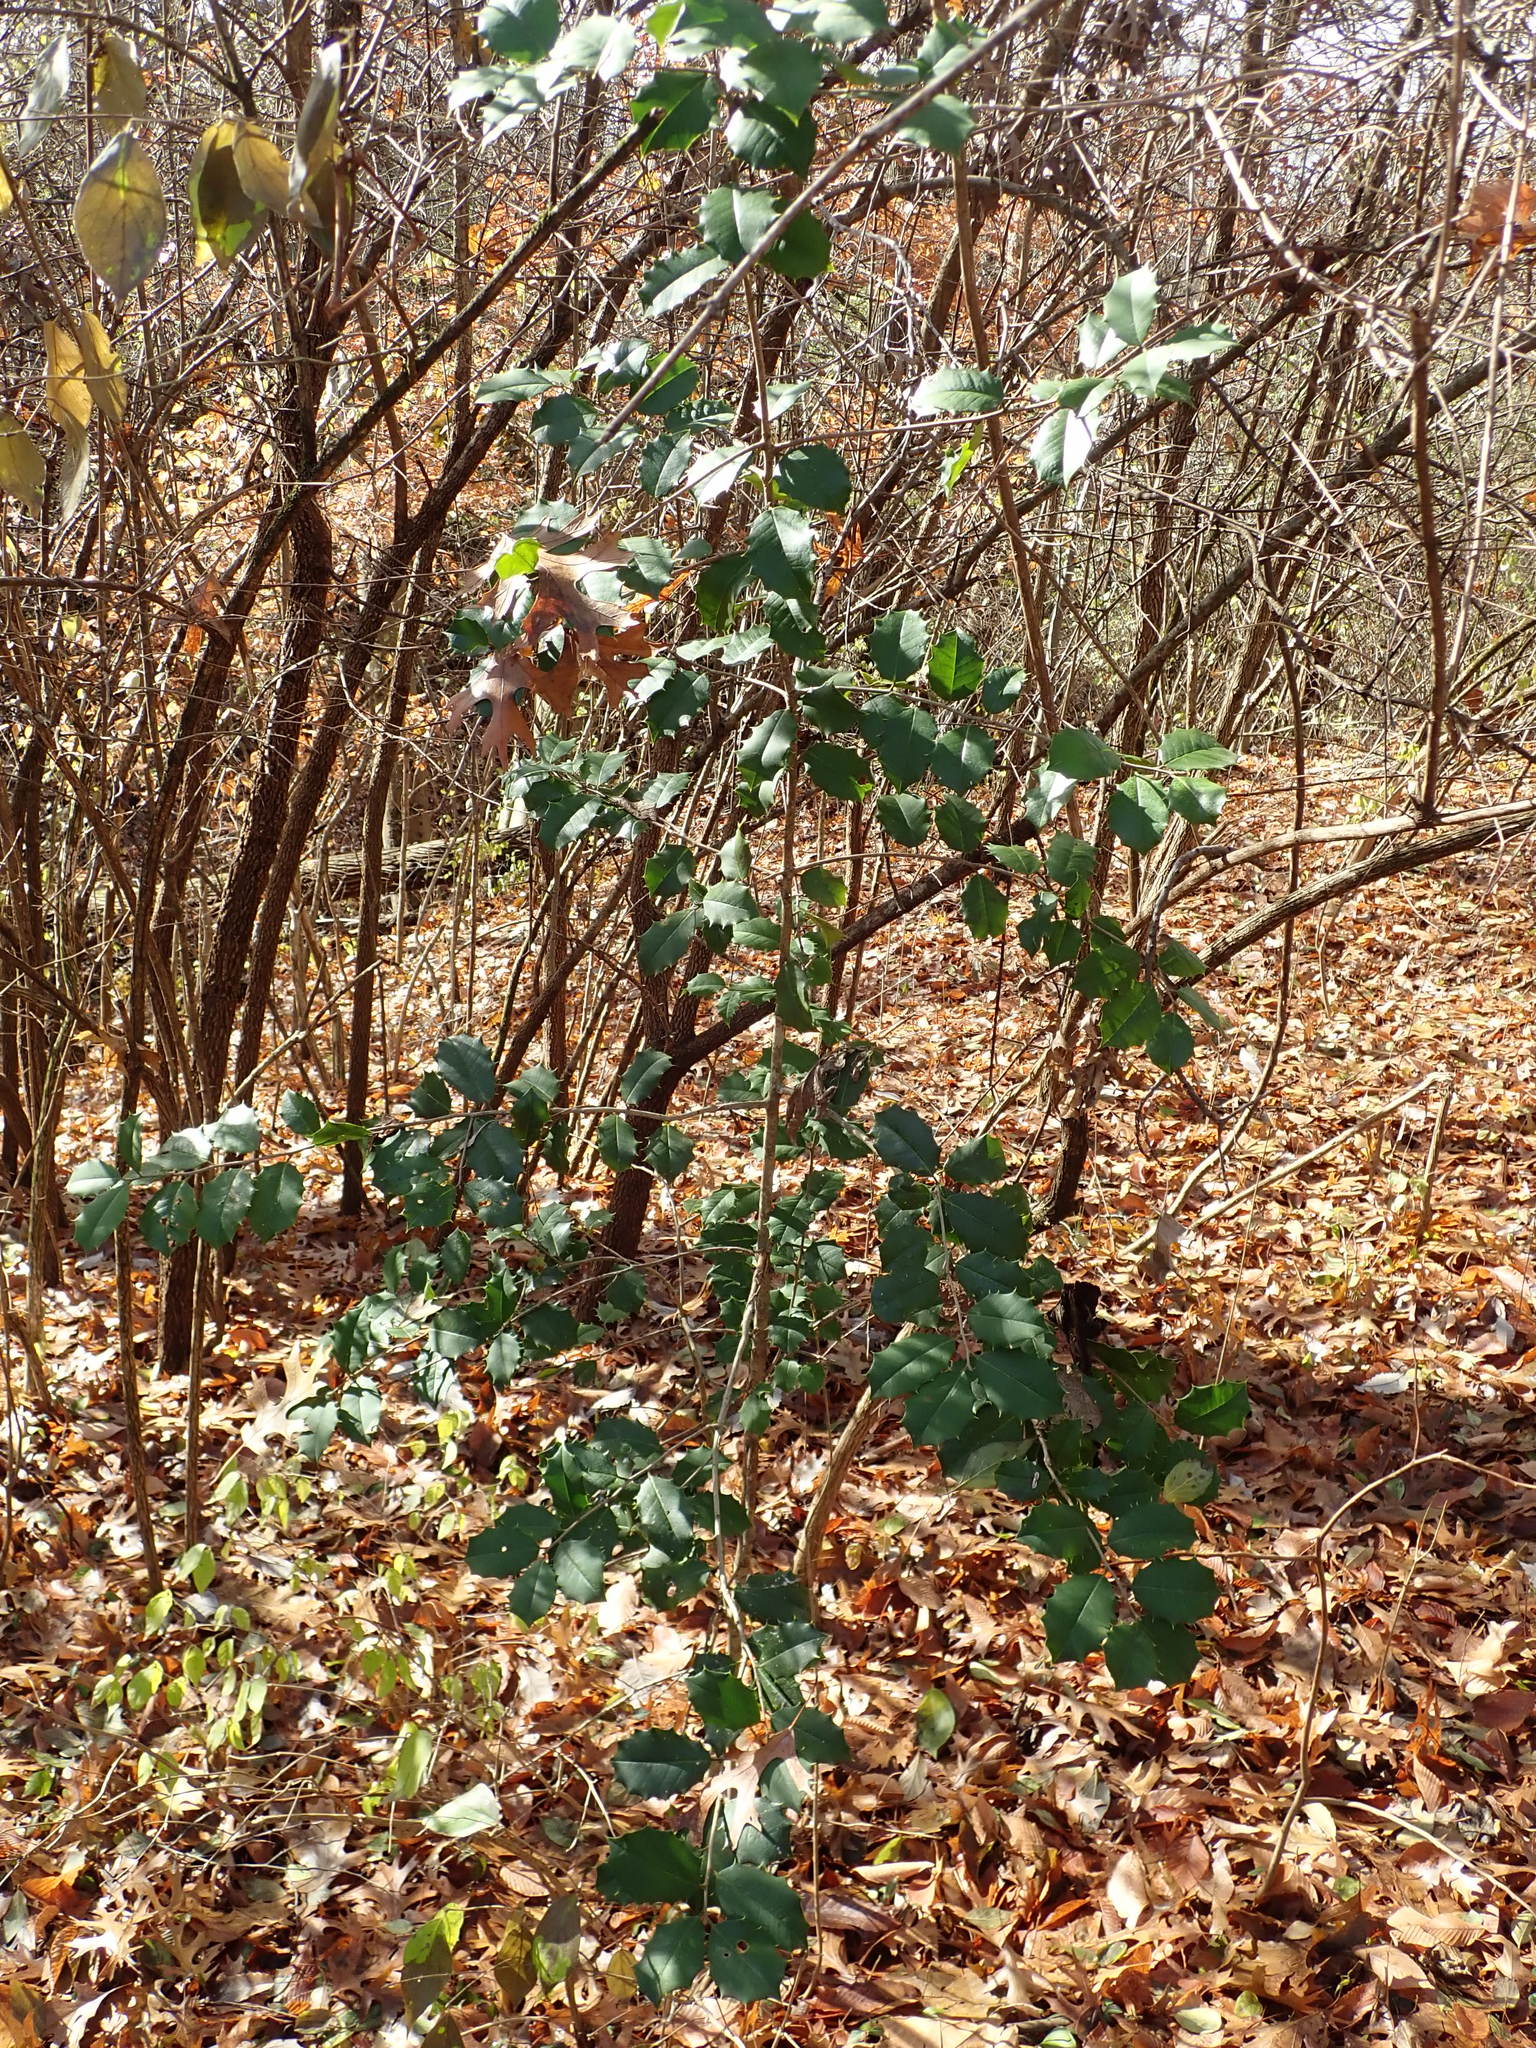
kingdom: Plantae
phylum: Tracheophyta
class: Magnoliopsida
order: Aquifoliales
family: Aquifoliaceae
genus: Ilex
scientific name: Ilex opaca
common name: American holly
